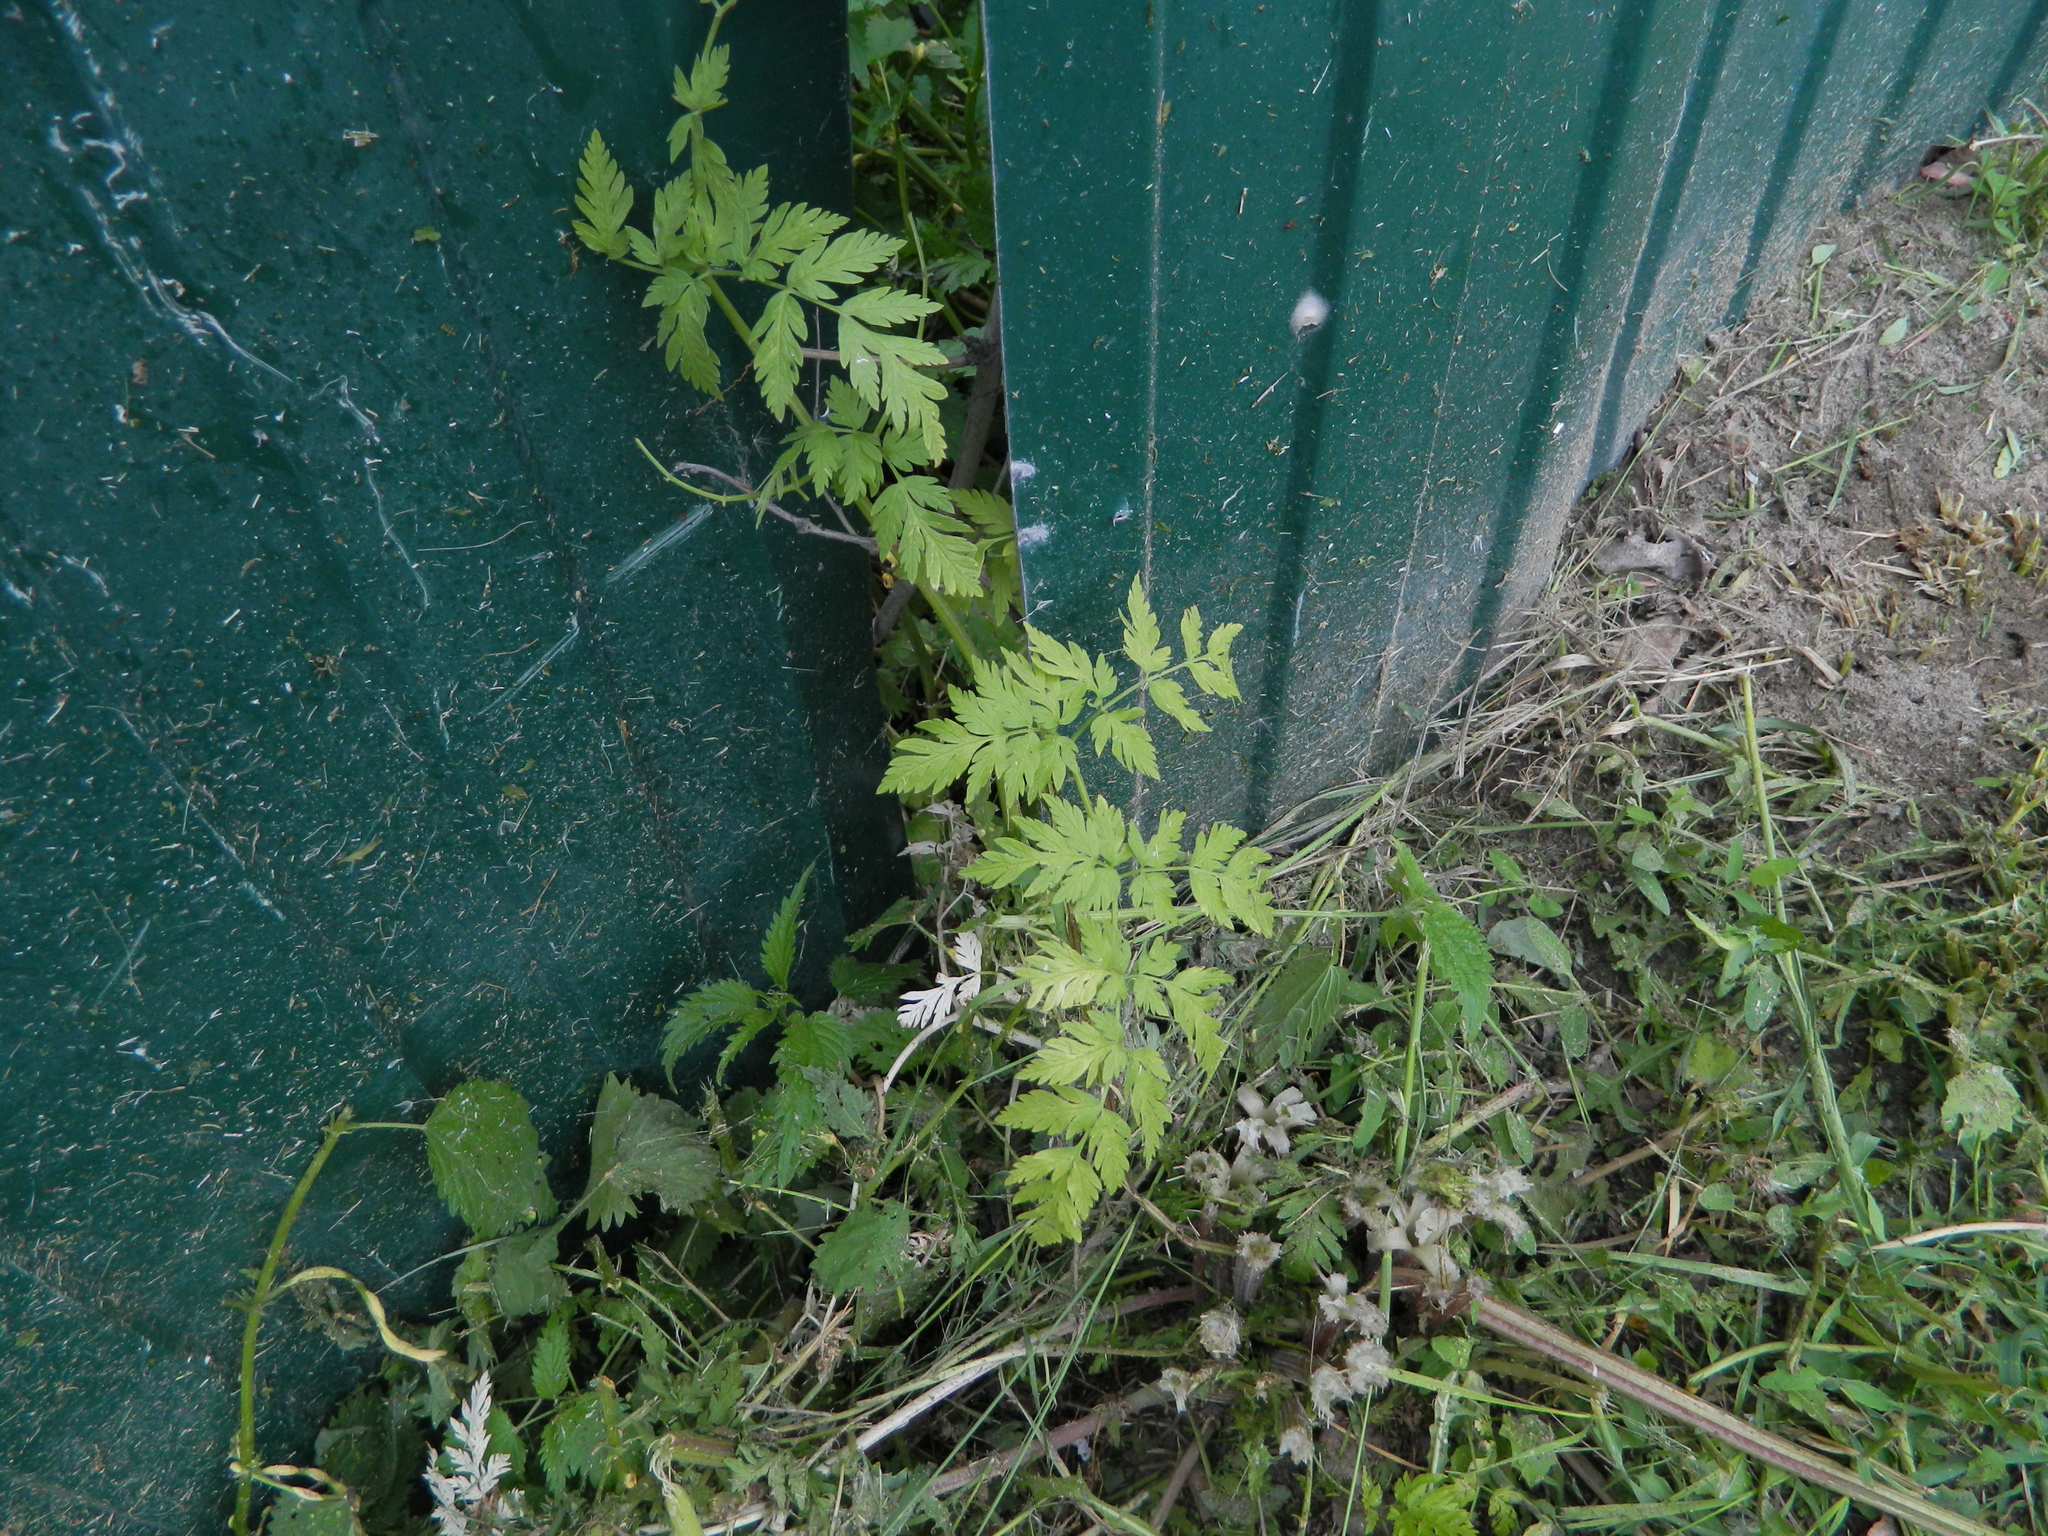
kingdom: Plantae
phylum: Tracheophyta
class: Magnoliopsida
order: Apiales
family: Apiaceae
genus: Anthriscus
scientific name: Anthriscus sylvestris
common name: Cow parsley
